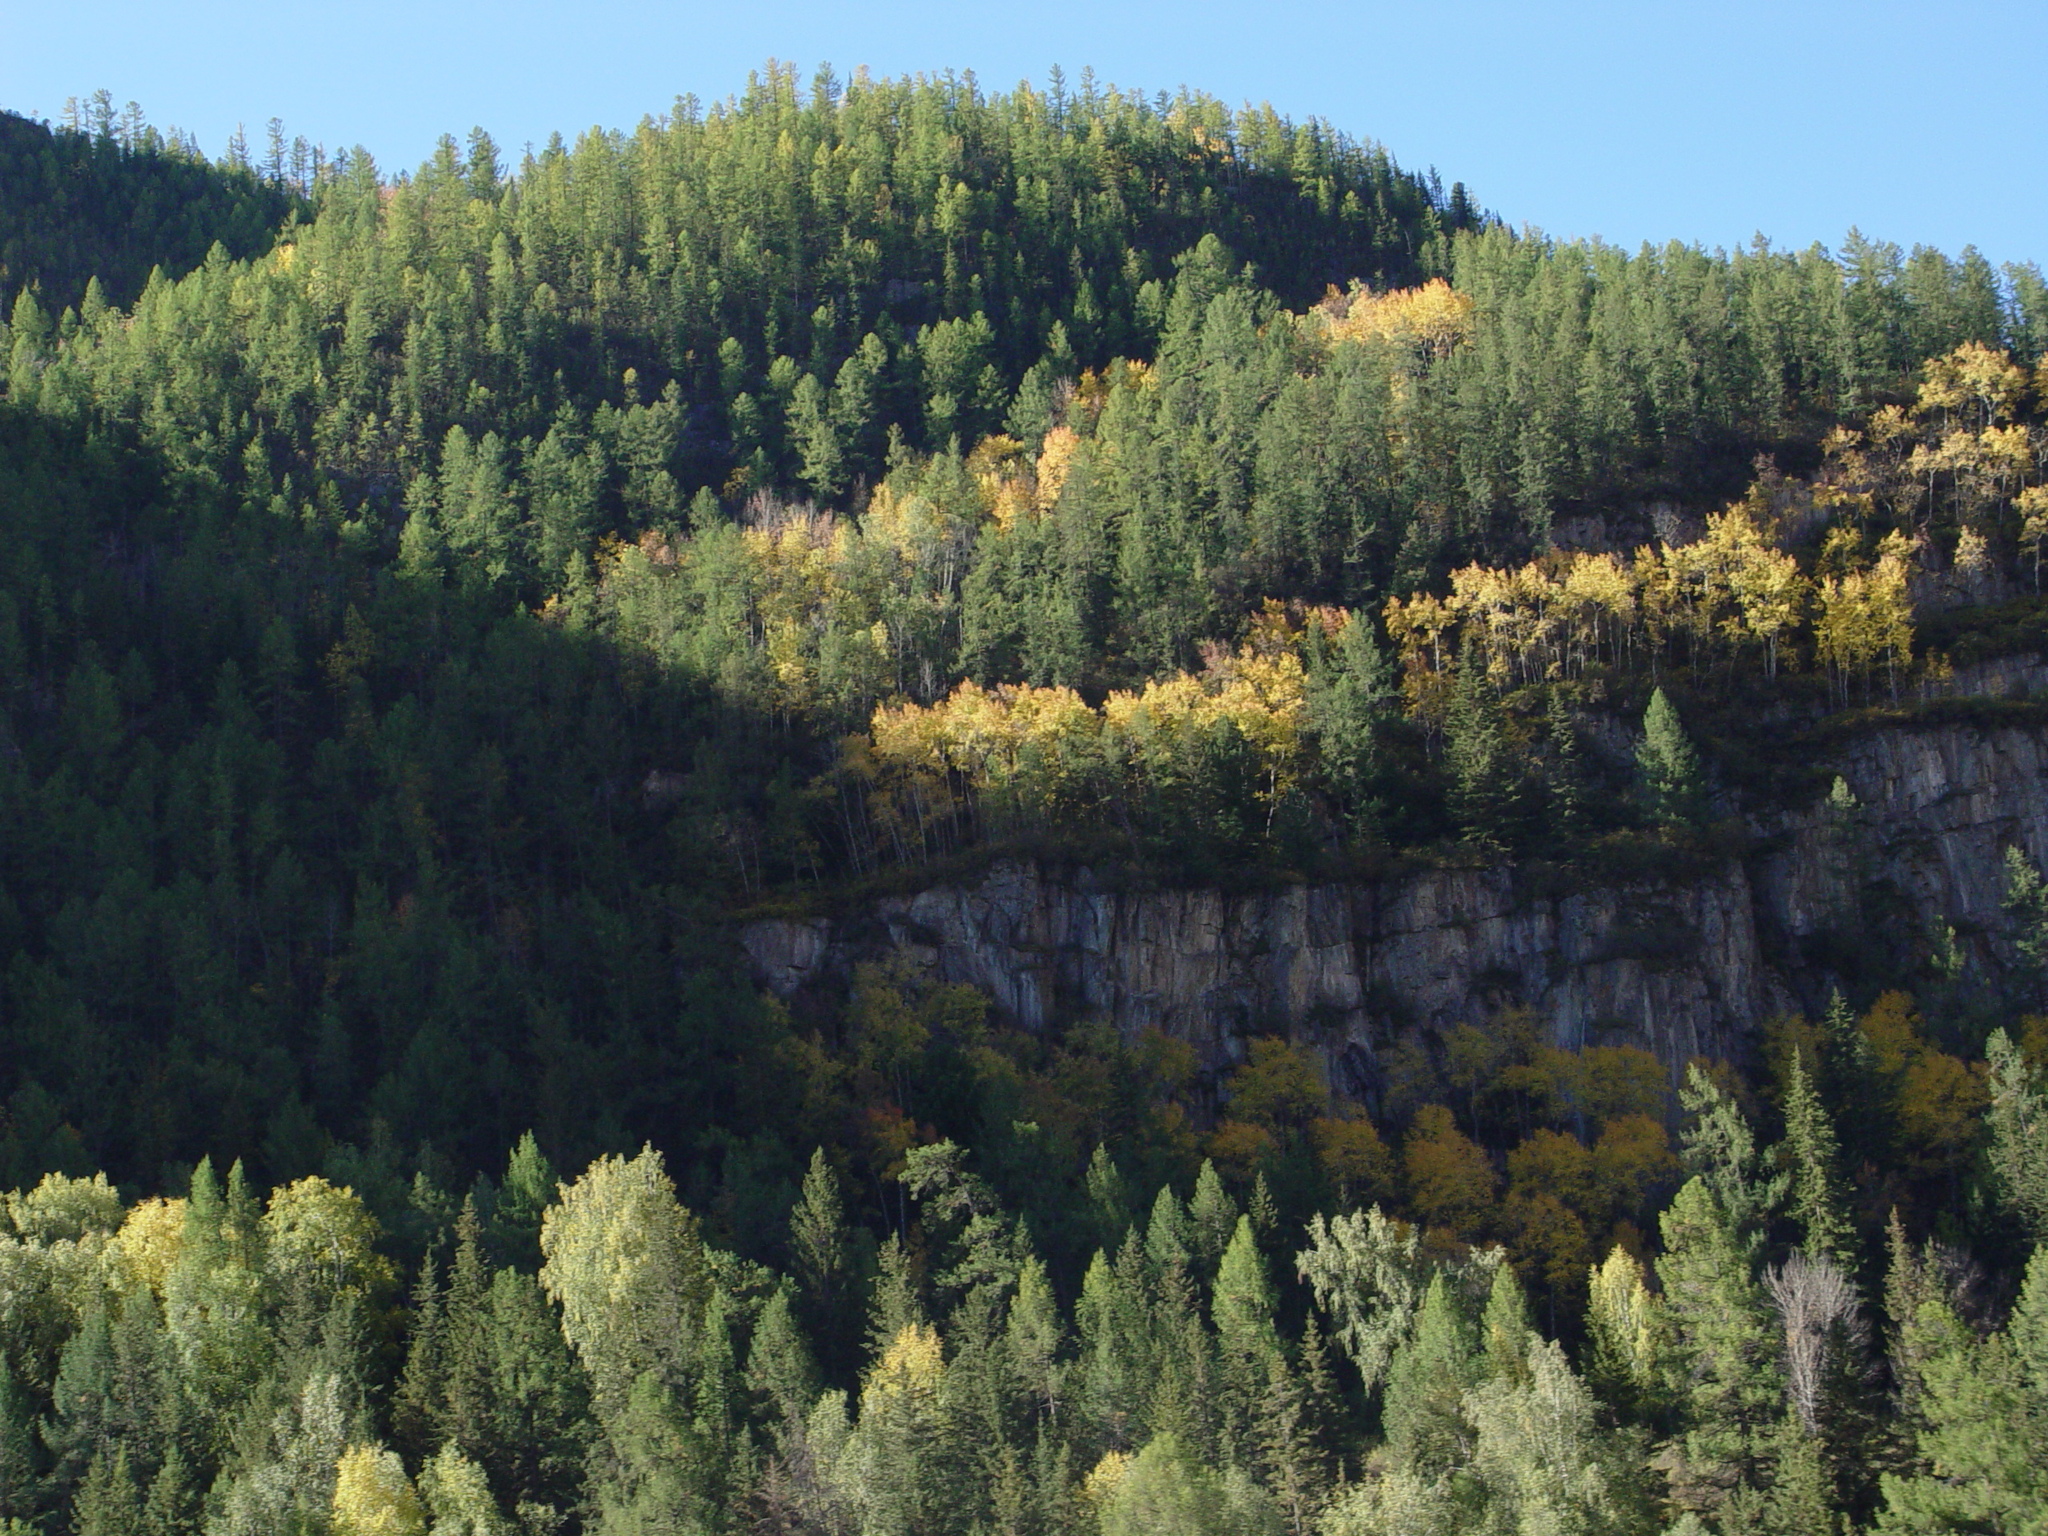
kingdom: Plantae
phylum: Tracheophyta
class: Pinopsida
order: Pinales
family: Pinaceae
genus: Larix
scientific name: Larix sibirica
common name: Siberian larch
